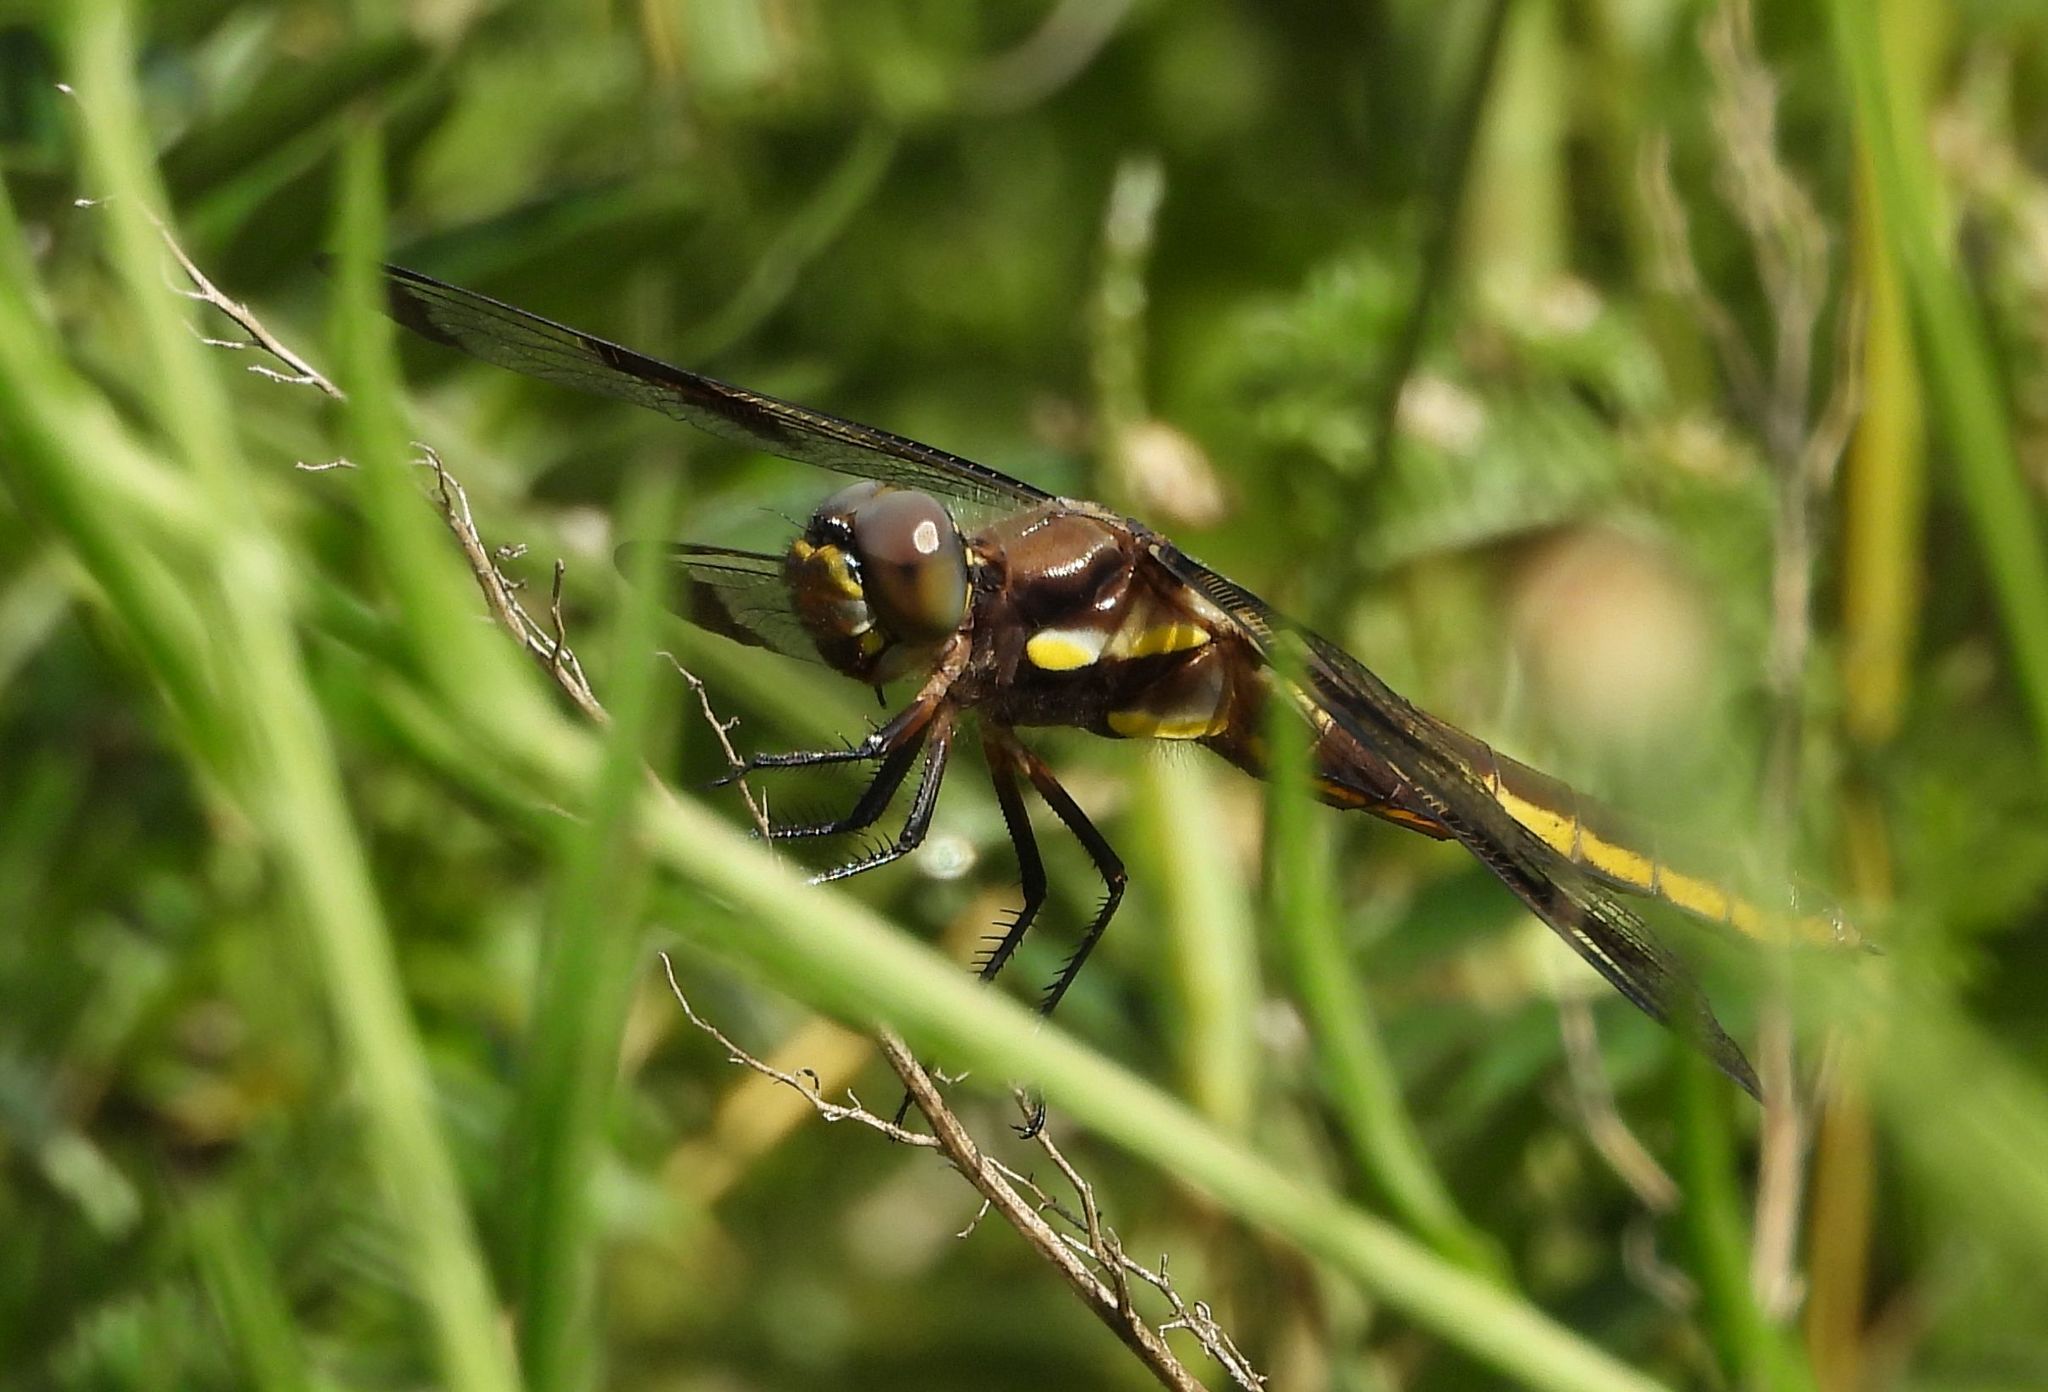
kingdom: Animalia
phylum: Arthropoda
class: Insecta
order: Odonata
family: Libellulidae
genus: Libellula
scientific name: Libellula pulchella
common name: Twelve-spotted skimmer
